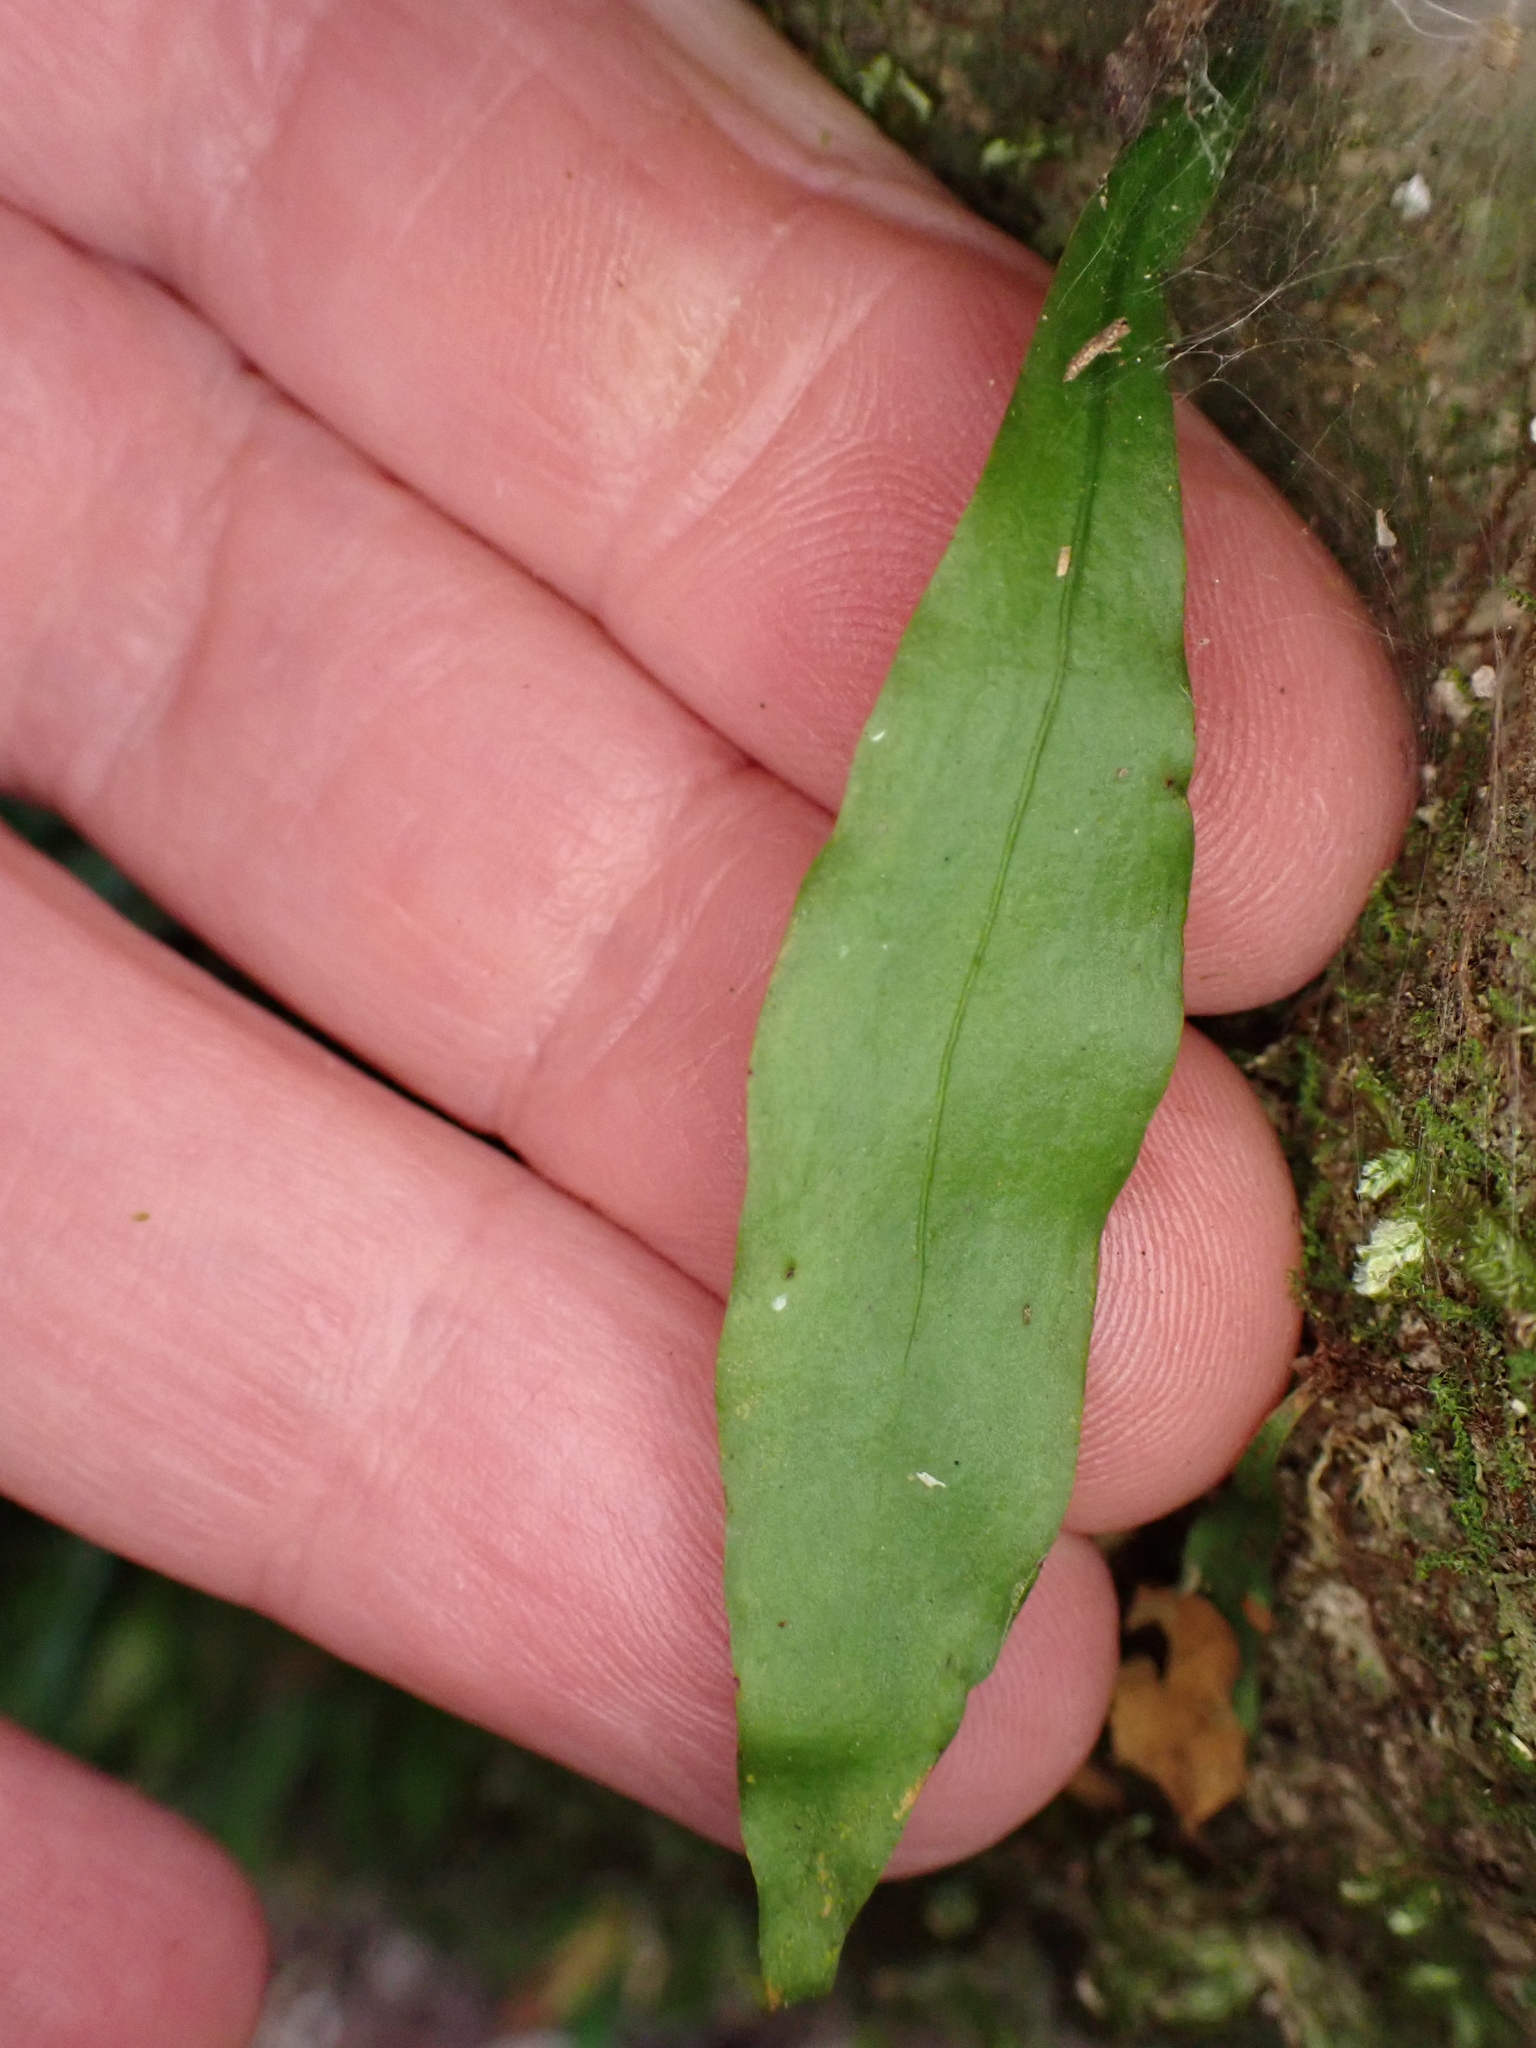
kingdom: Plantae
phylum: Tracheophyta
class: Polypodiopsida
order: Polypodiales
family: Polypodiaceae
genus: Loxogramme
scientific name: Loxogramme dictyopteris
